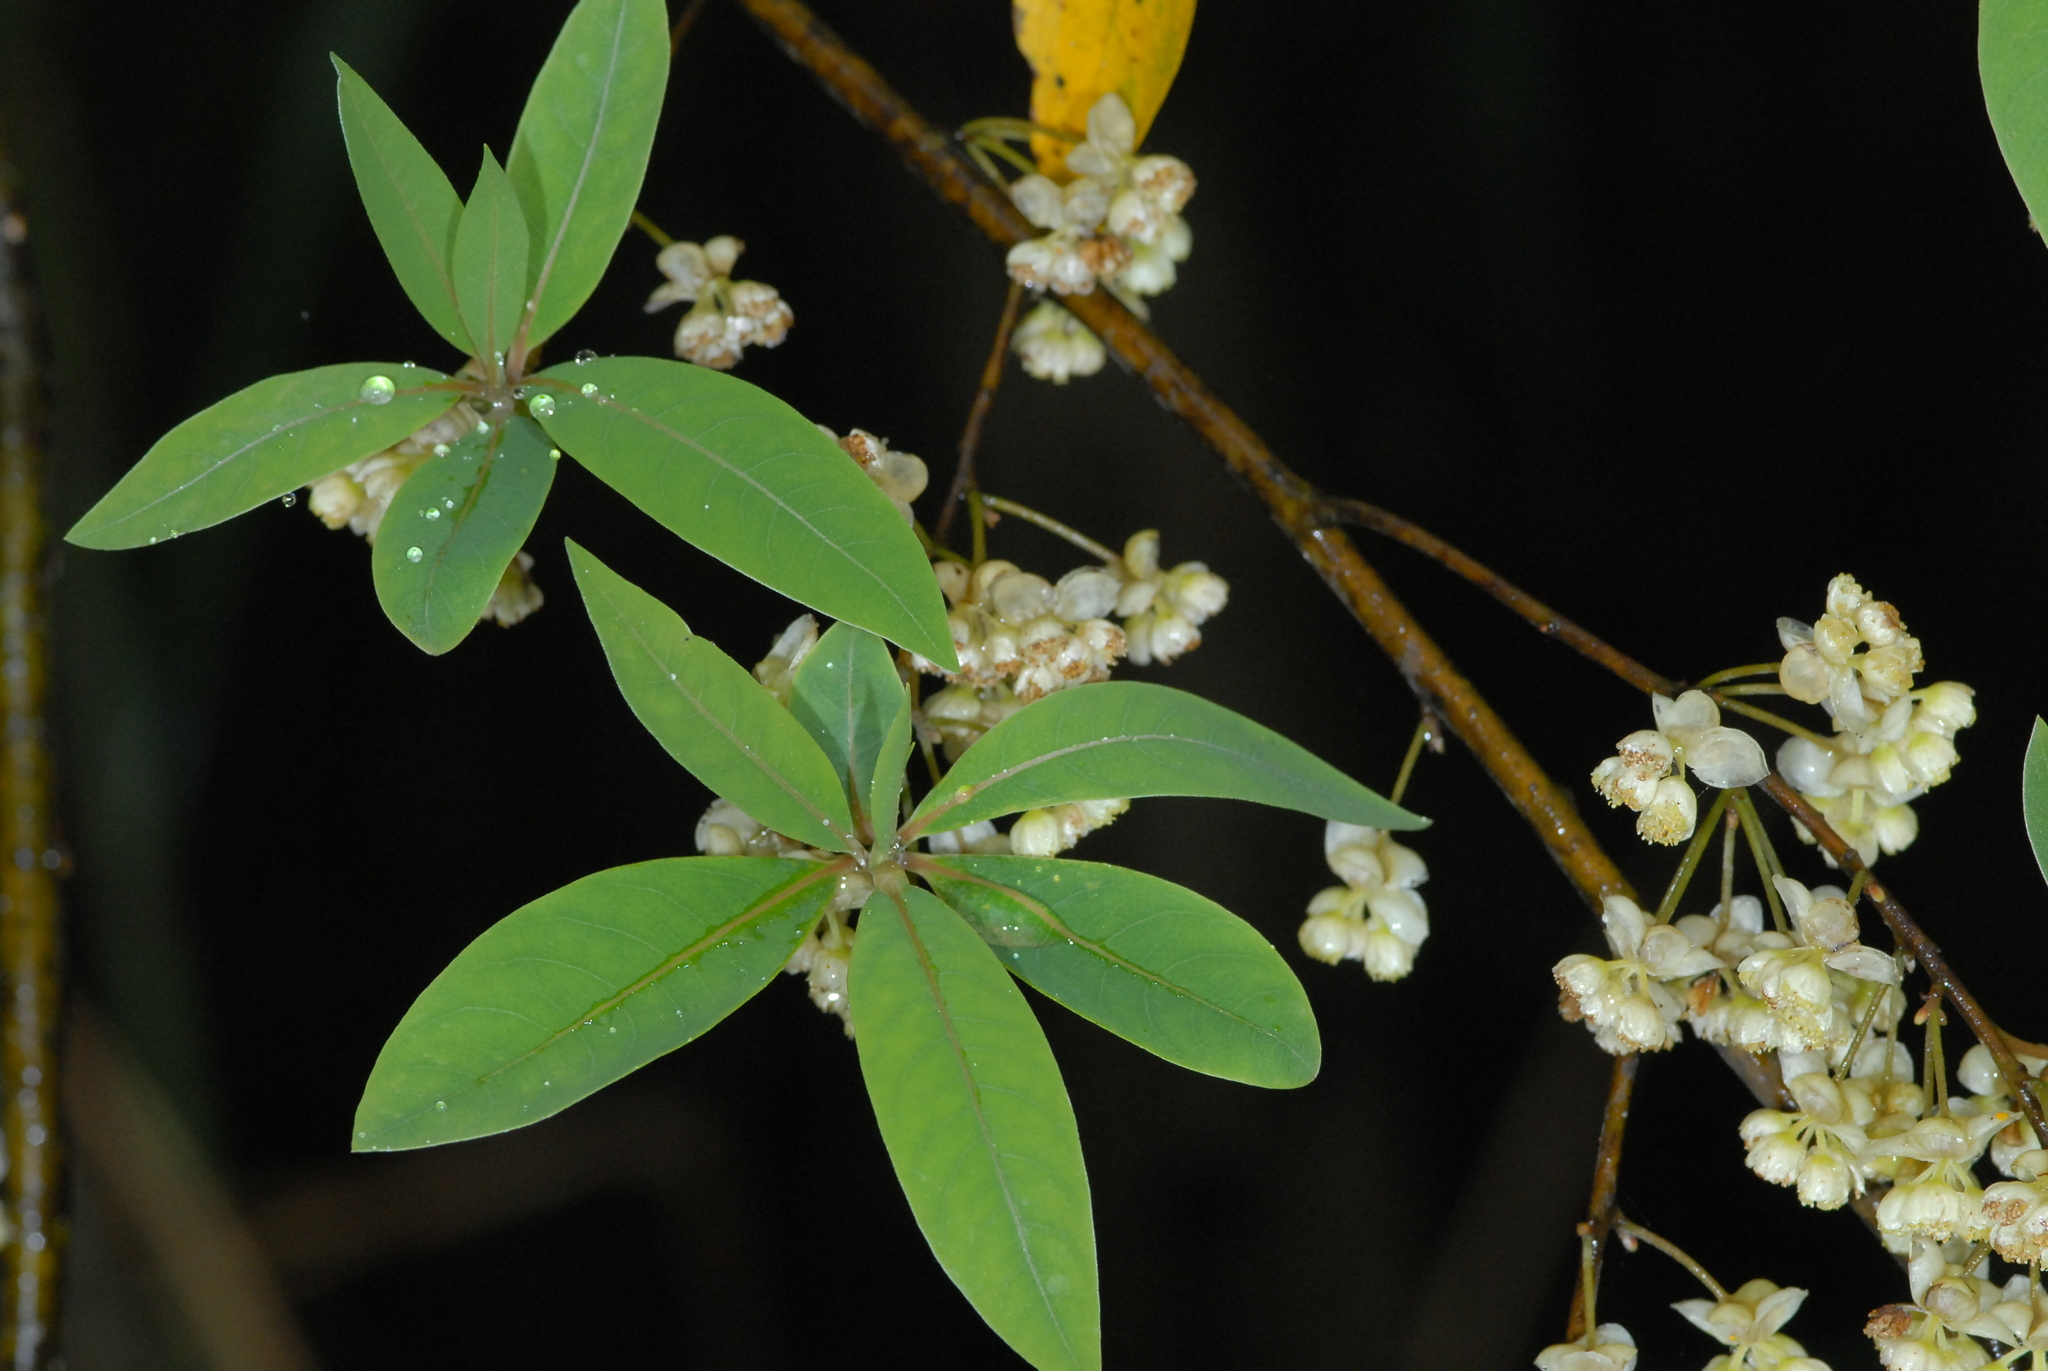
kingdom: Plantae
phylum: Tracheophyta
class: Magnoliopsida
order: Laurales
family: Lauraceae
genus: Litsea
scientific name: Litsea cubeba
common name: Mountain-pepper
